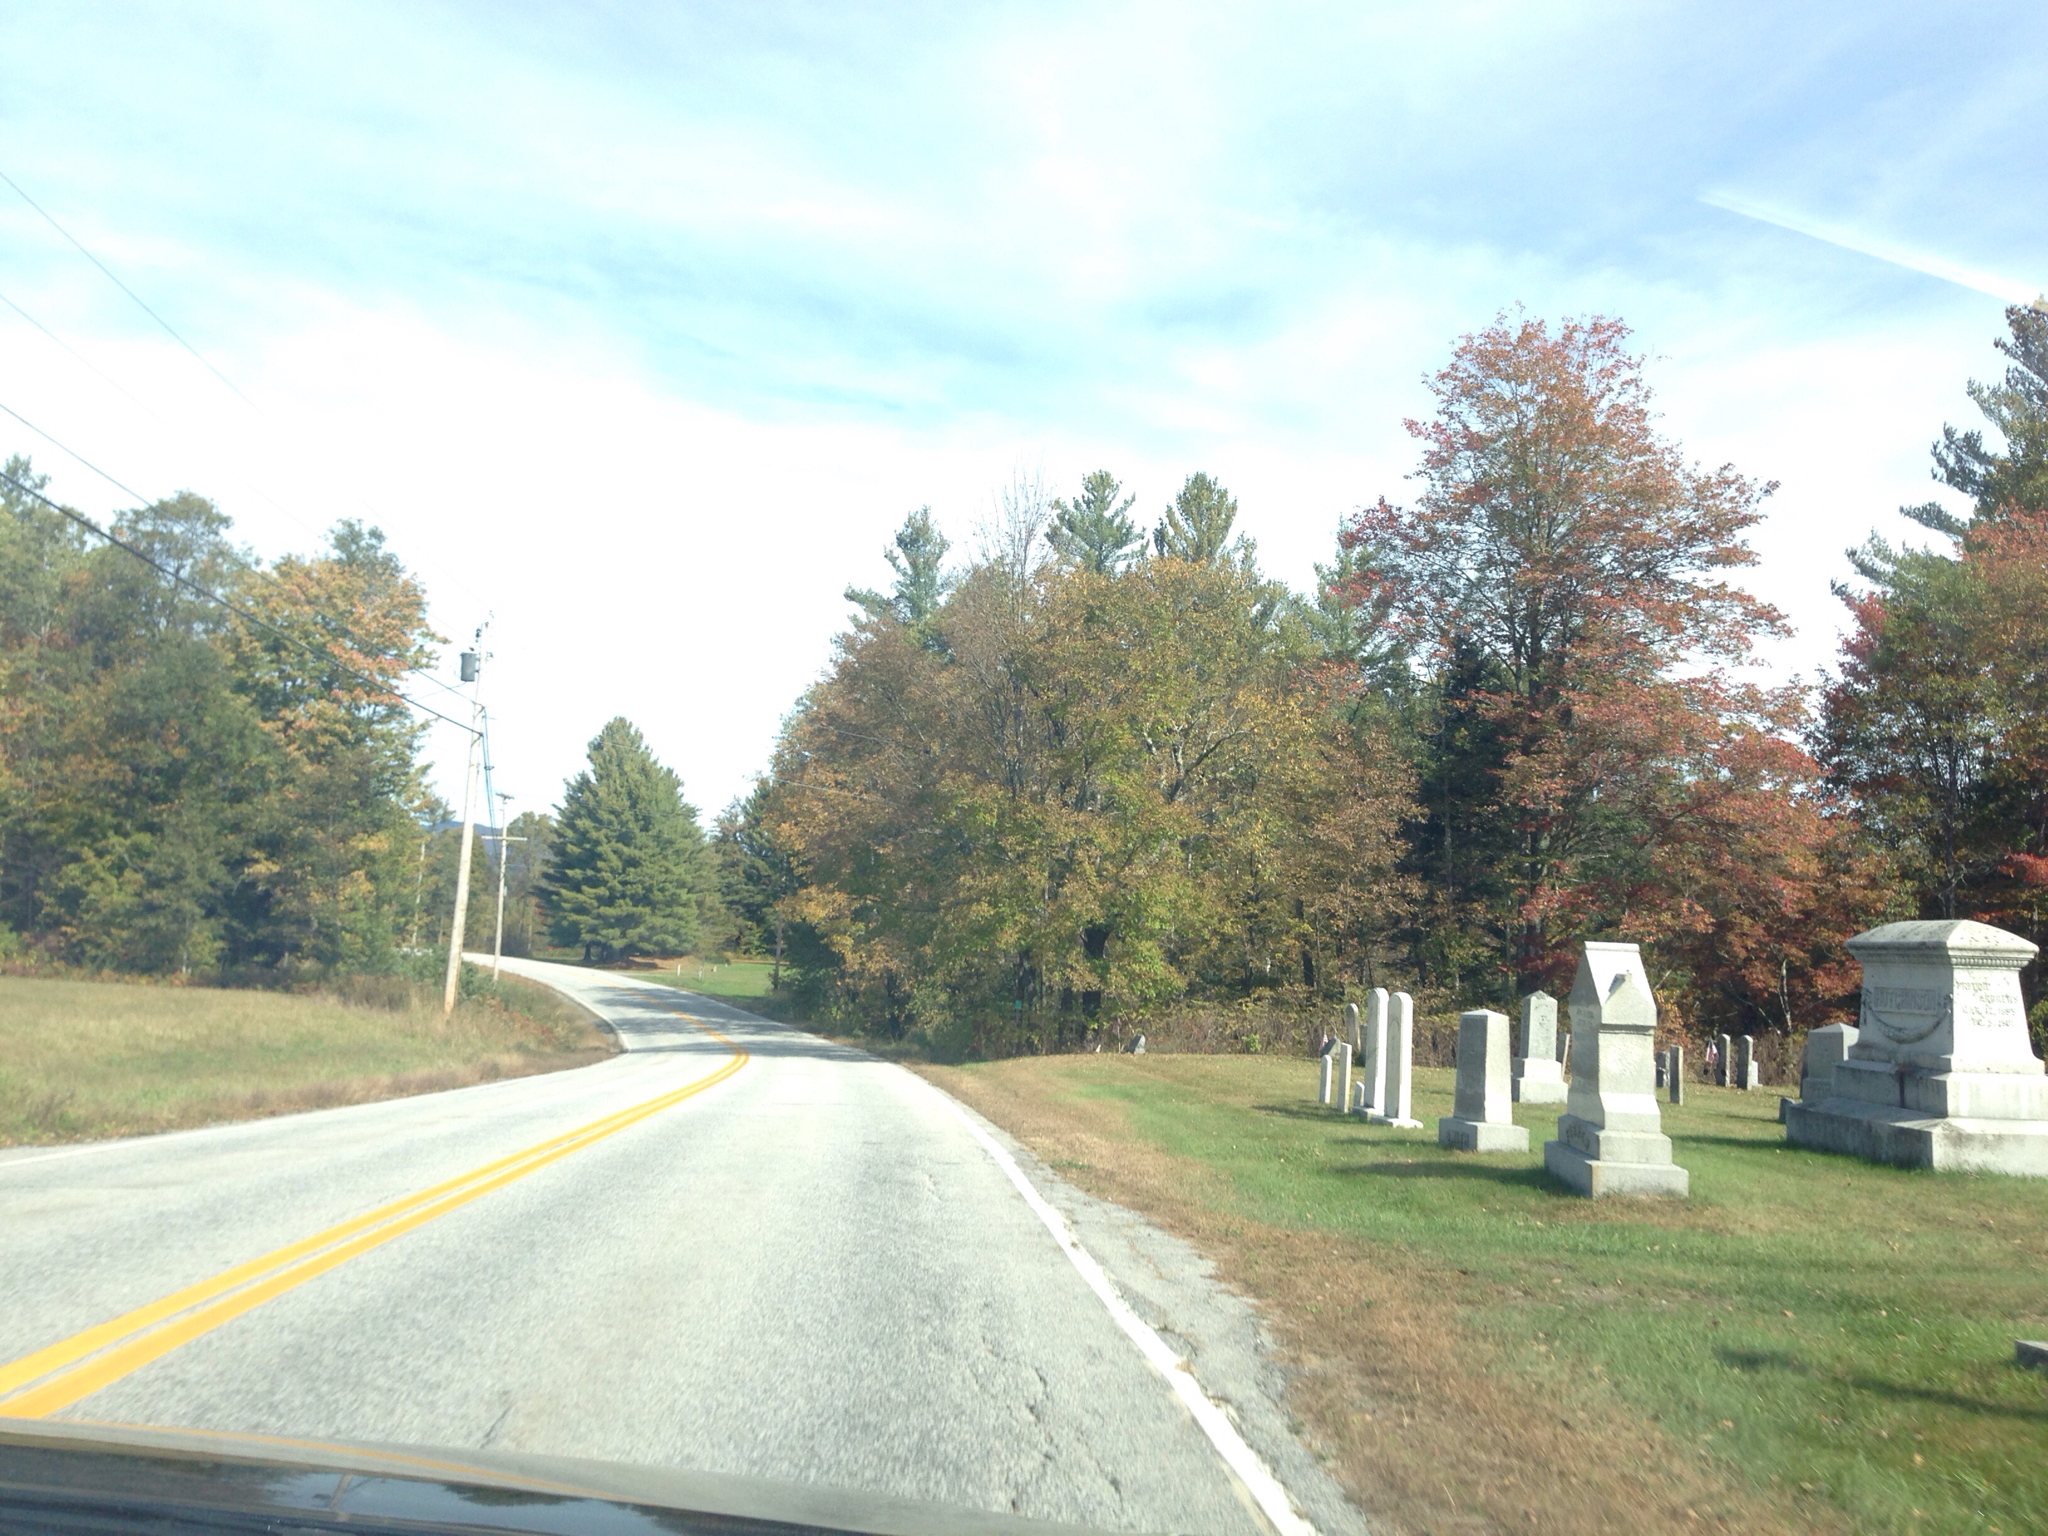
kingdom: Plantae
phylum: Tracheophyta
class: Pinopsida
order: Pinales
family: Pinaceae
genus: Pinus
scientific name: Pinus strobus
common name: Weymouth pine
